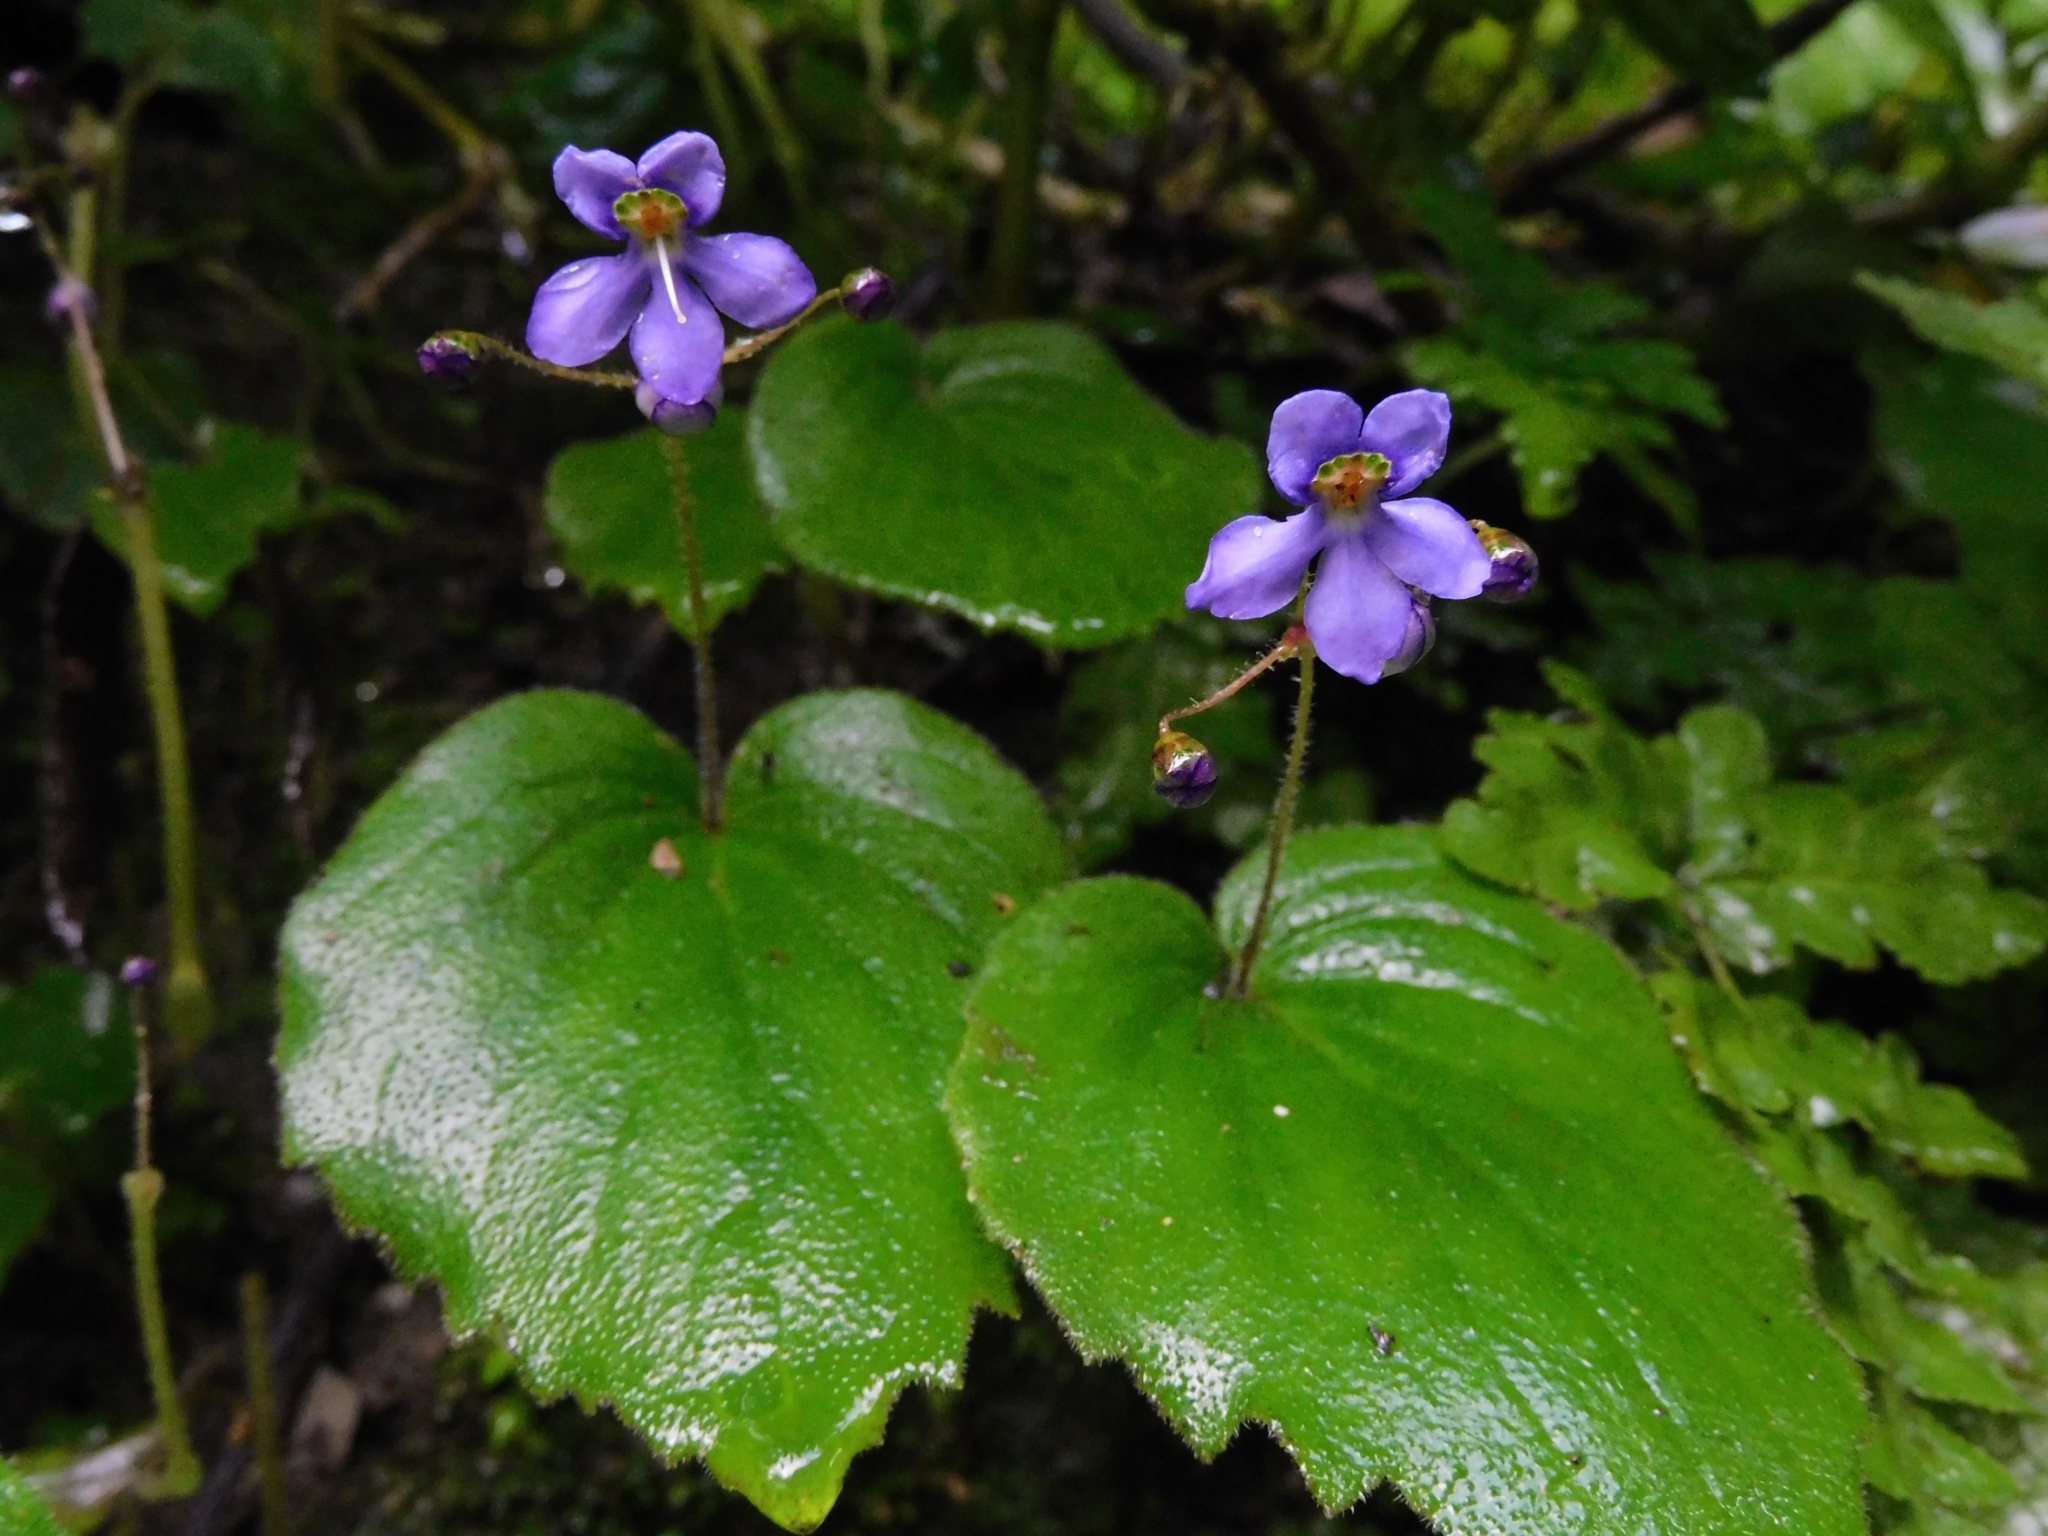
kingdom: Plantae
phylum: Tracheophyta
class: Magnoliopsida
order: Lamiales
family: Gesneriaceae
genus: Platystemma
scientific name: Platystemma violoides
